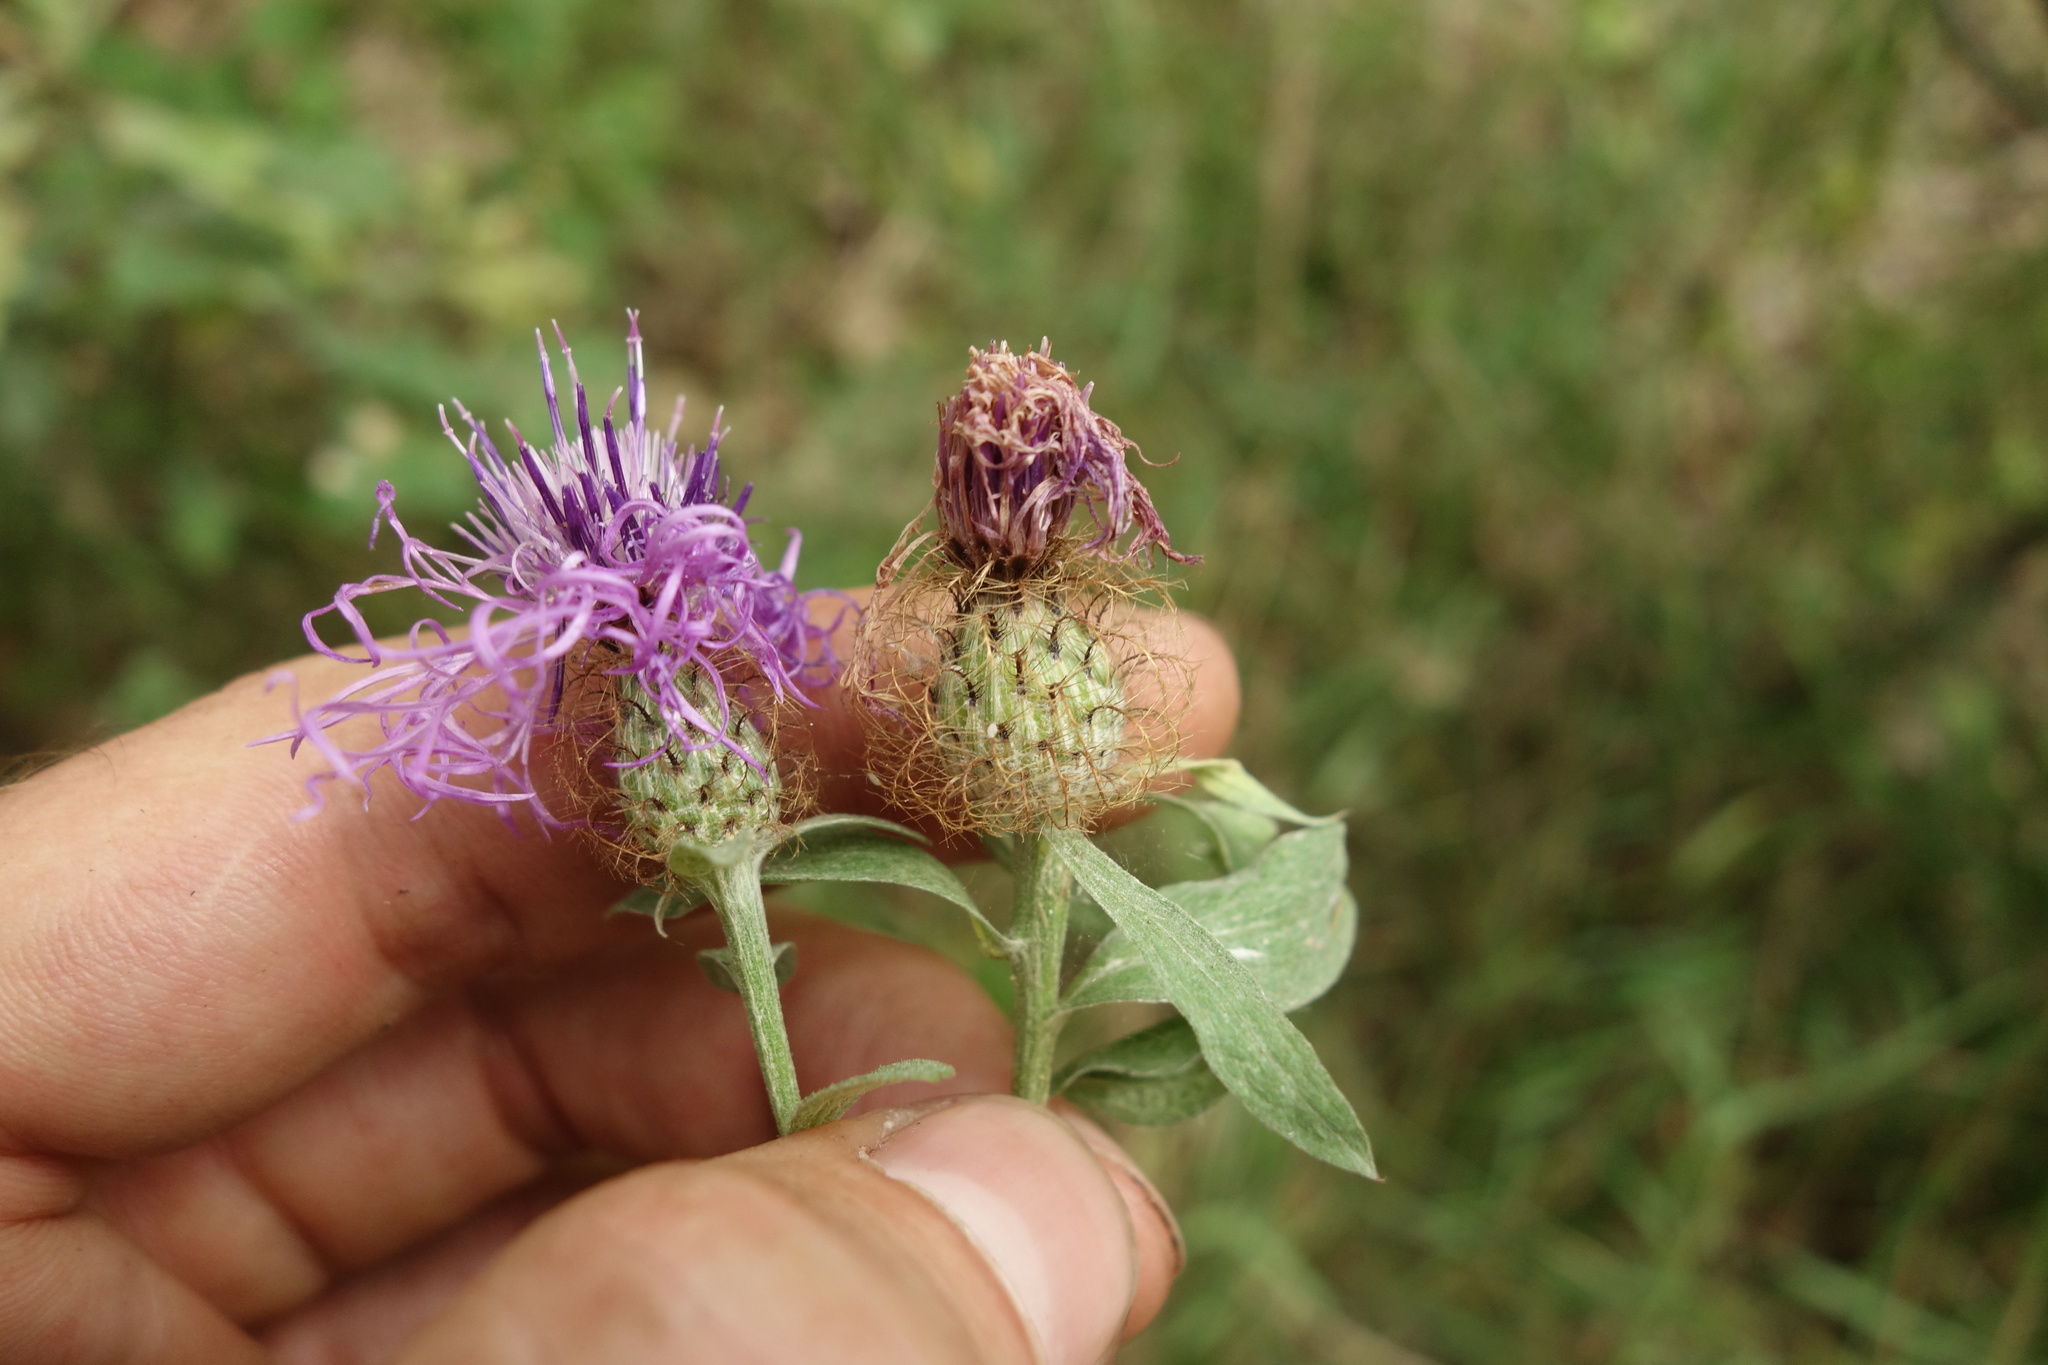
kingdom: Plantae
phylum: Tracheophyta
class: Magnoliopsida
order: Asterales
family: Asteraceae
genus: Centaurea
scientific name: Centaurea pseudophrygia
